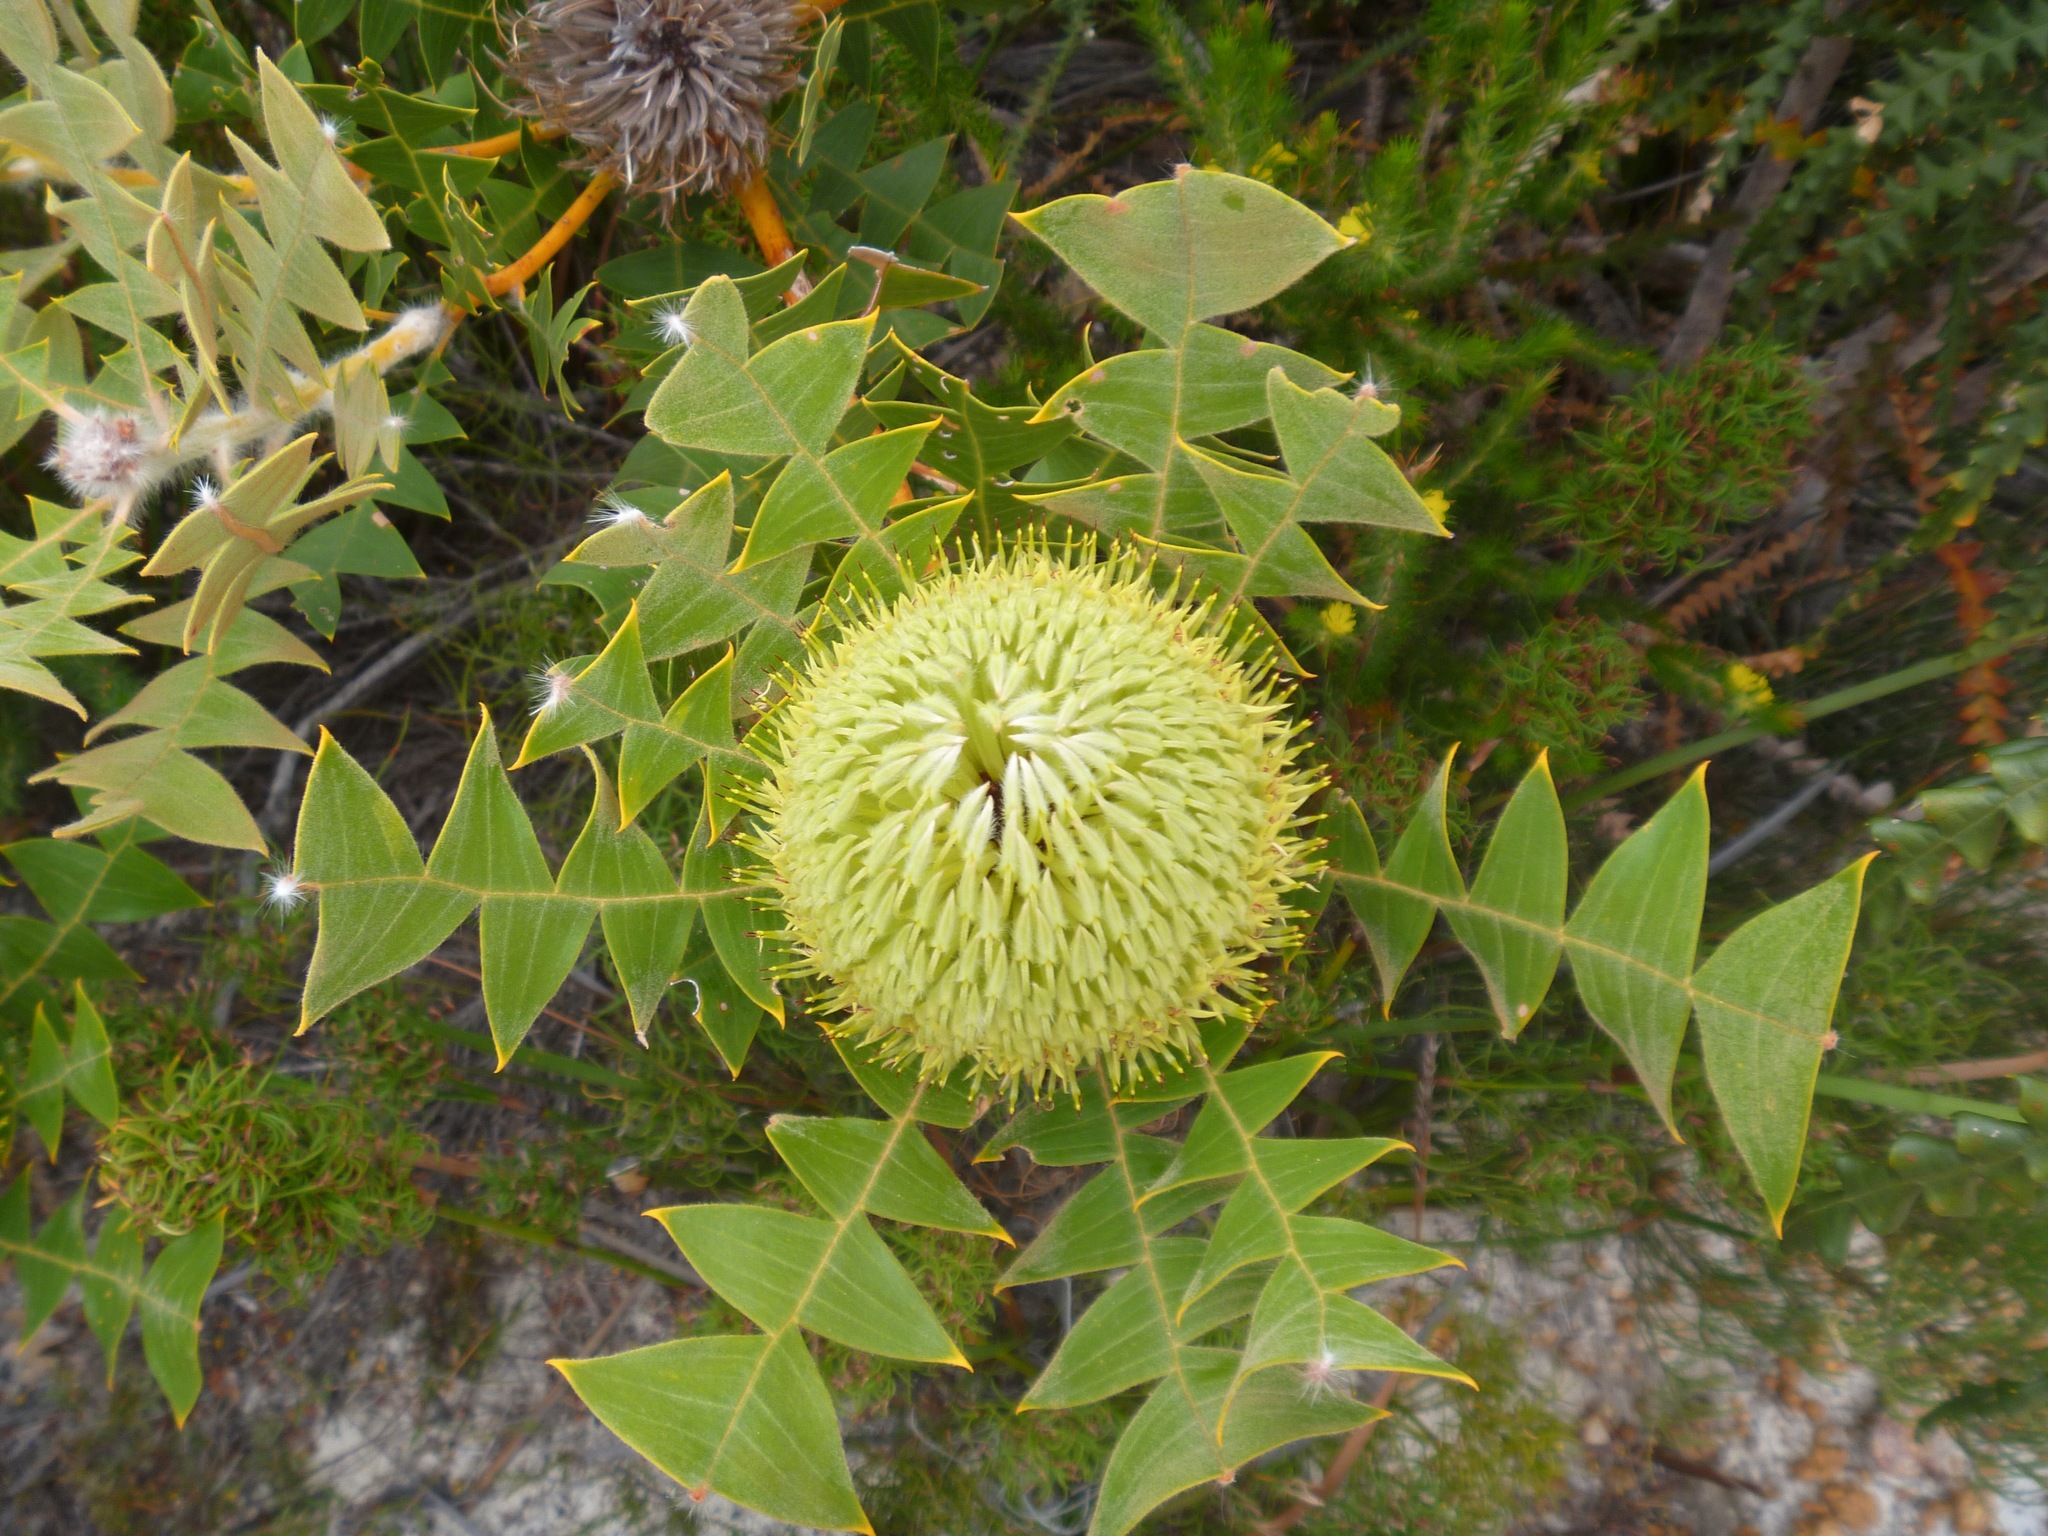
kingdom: Plantae
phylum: Tracheophyta
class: Magnoliopsida
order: Proteales
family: Proteaceae
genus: Banksia
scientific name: Banksia baxteri
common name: Bird's-nest banksia
